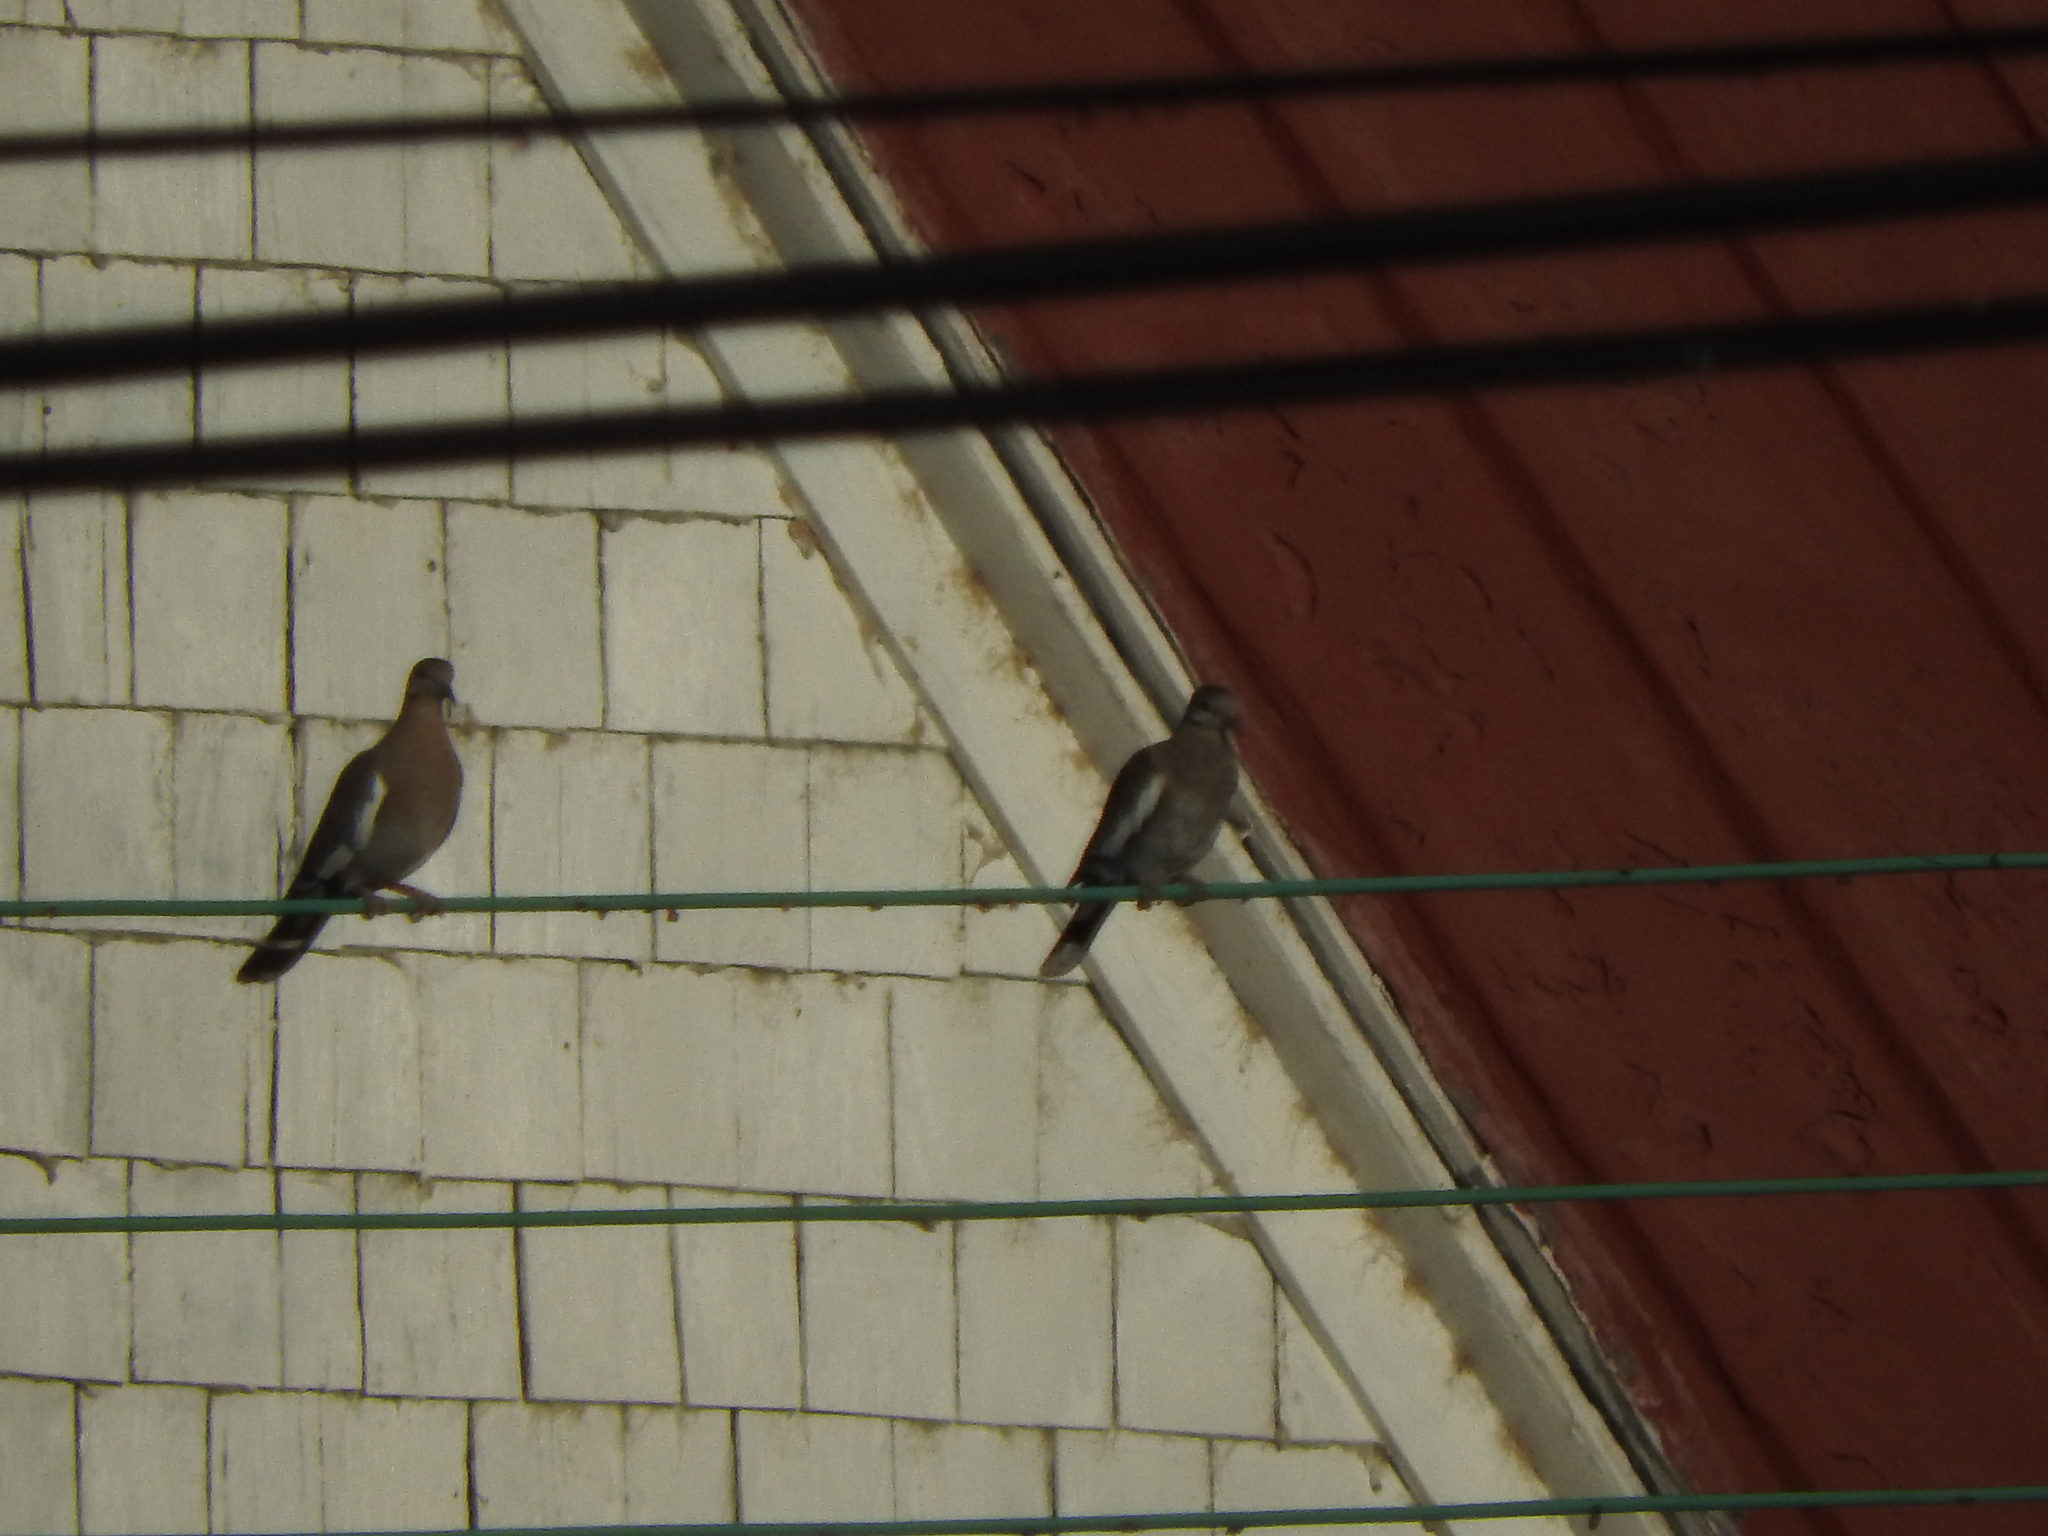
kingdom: Animalia
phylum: Chordata
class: Aves
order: Columbiformes
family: Columbidae
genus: Zenaida
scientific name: Zenaida asiatica
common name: White-winged dove
